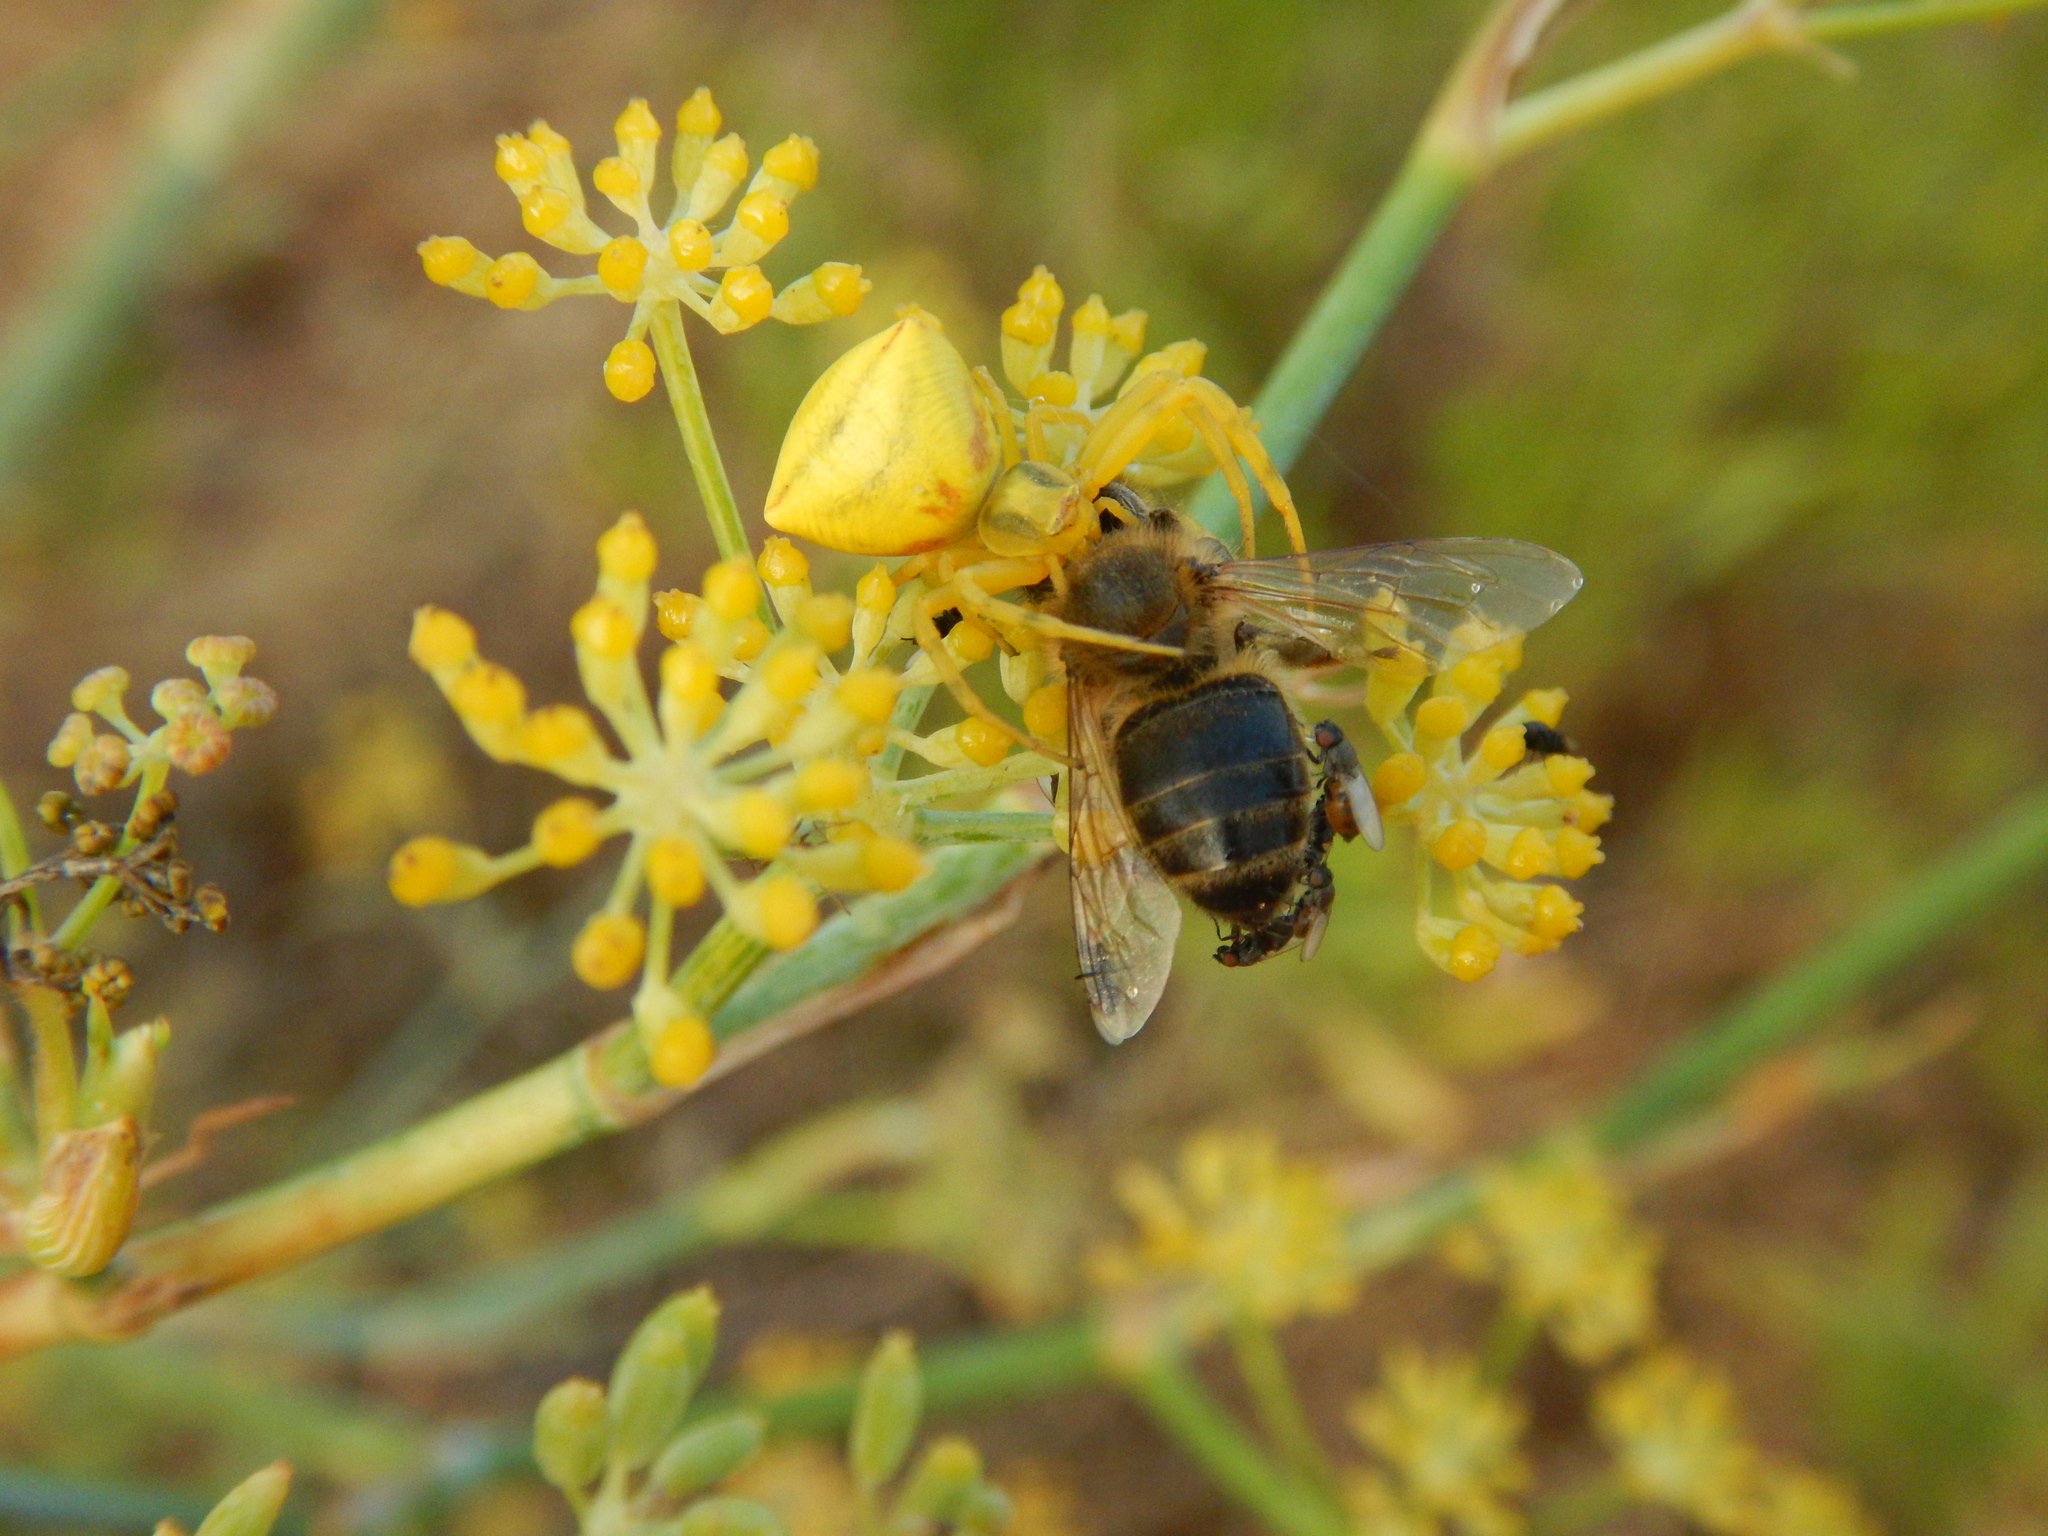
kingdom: Animalia
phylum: Arthropoda
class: Arachnida
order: Araneae
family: Thomisidae
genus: Thomisus
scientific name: Thomisus onustus
